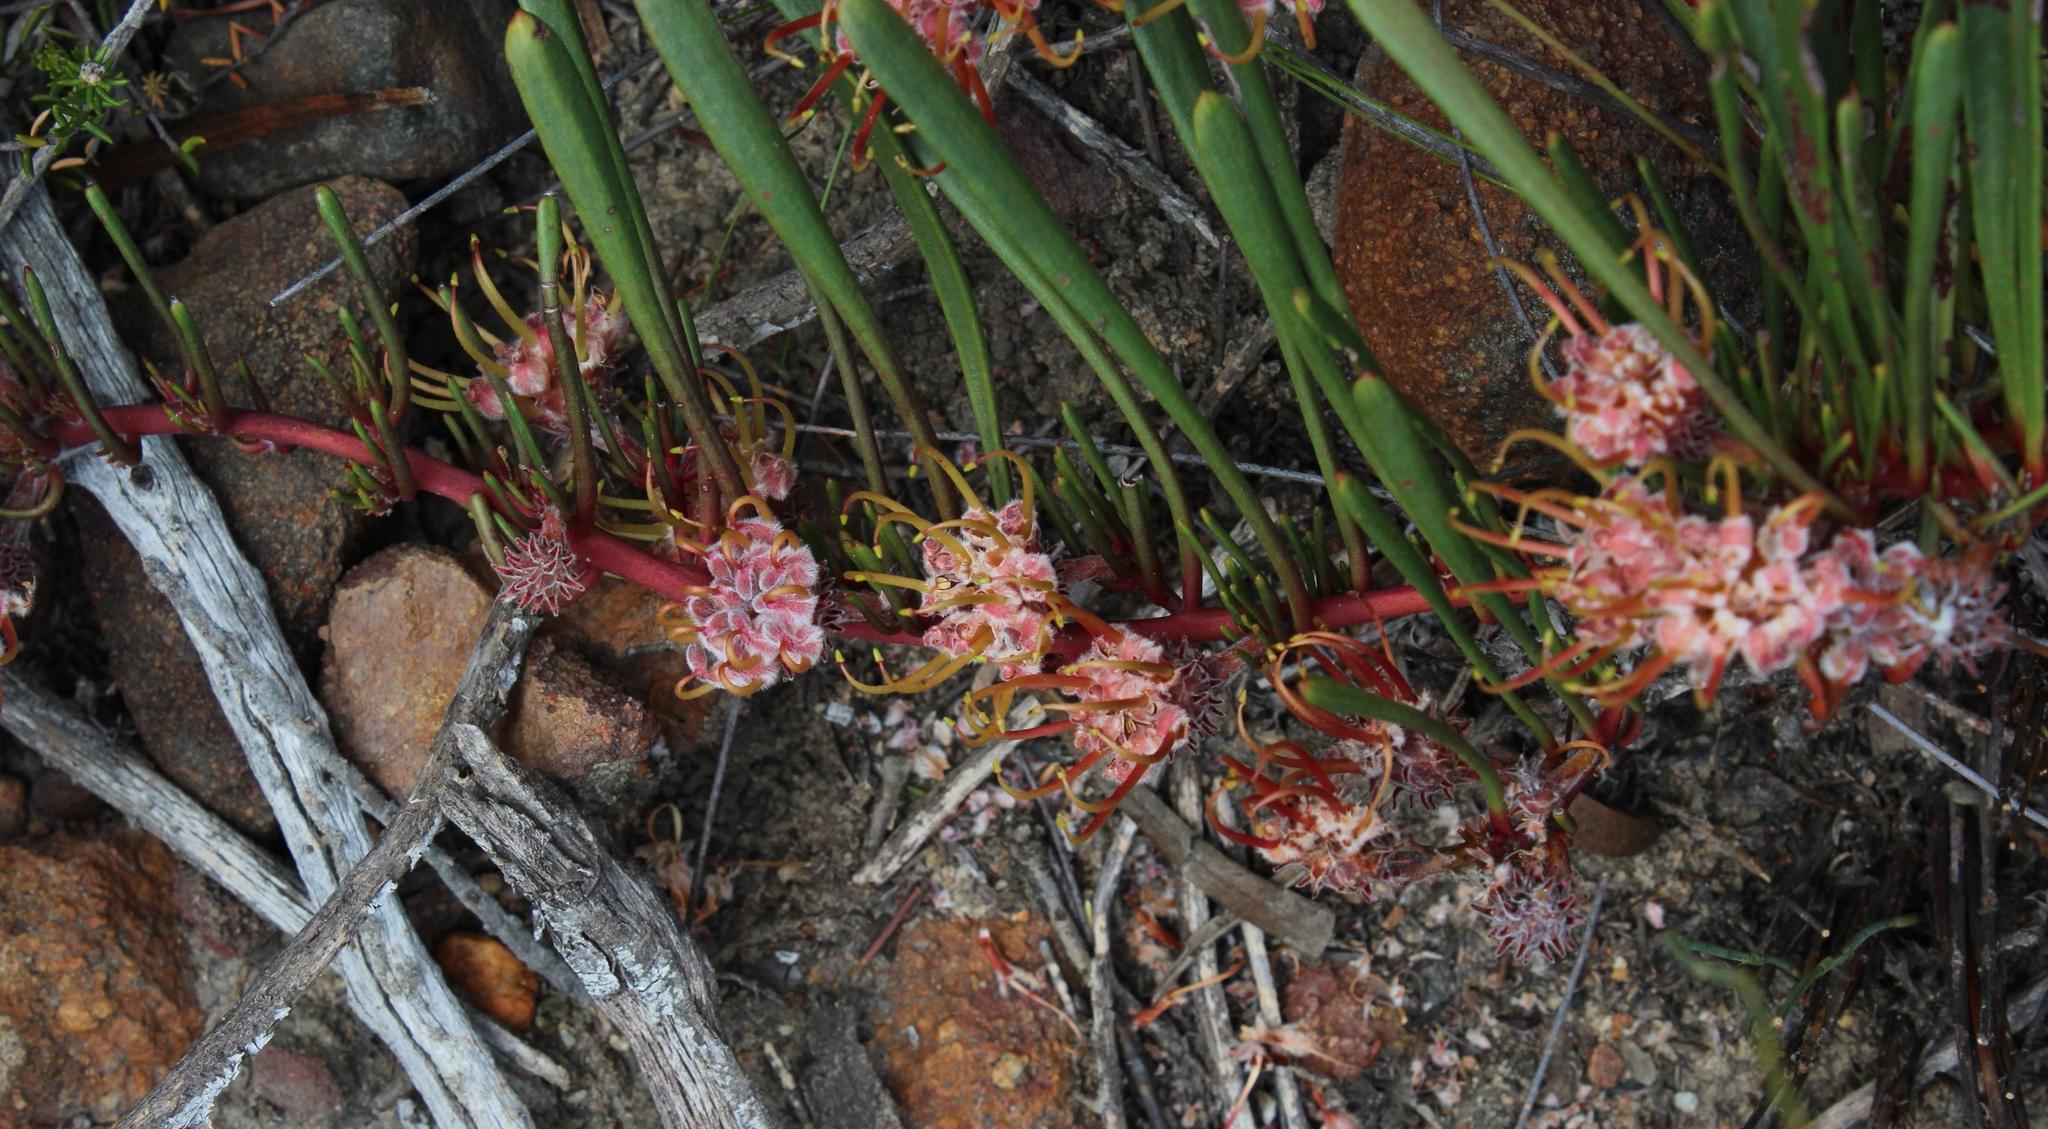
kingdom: Plantae
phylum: Tracheophyta
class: Magnoliopsida
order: Proteales
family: Proteaceae
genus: Leucospermum
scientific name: Leucospermum harpagonatum
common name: Mcgregor pincushion
